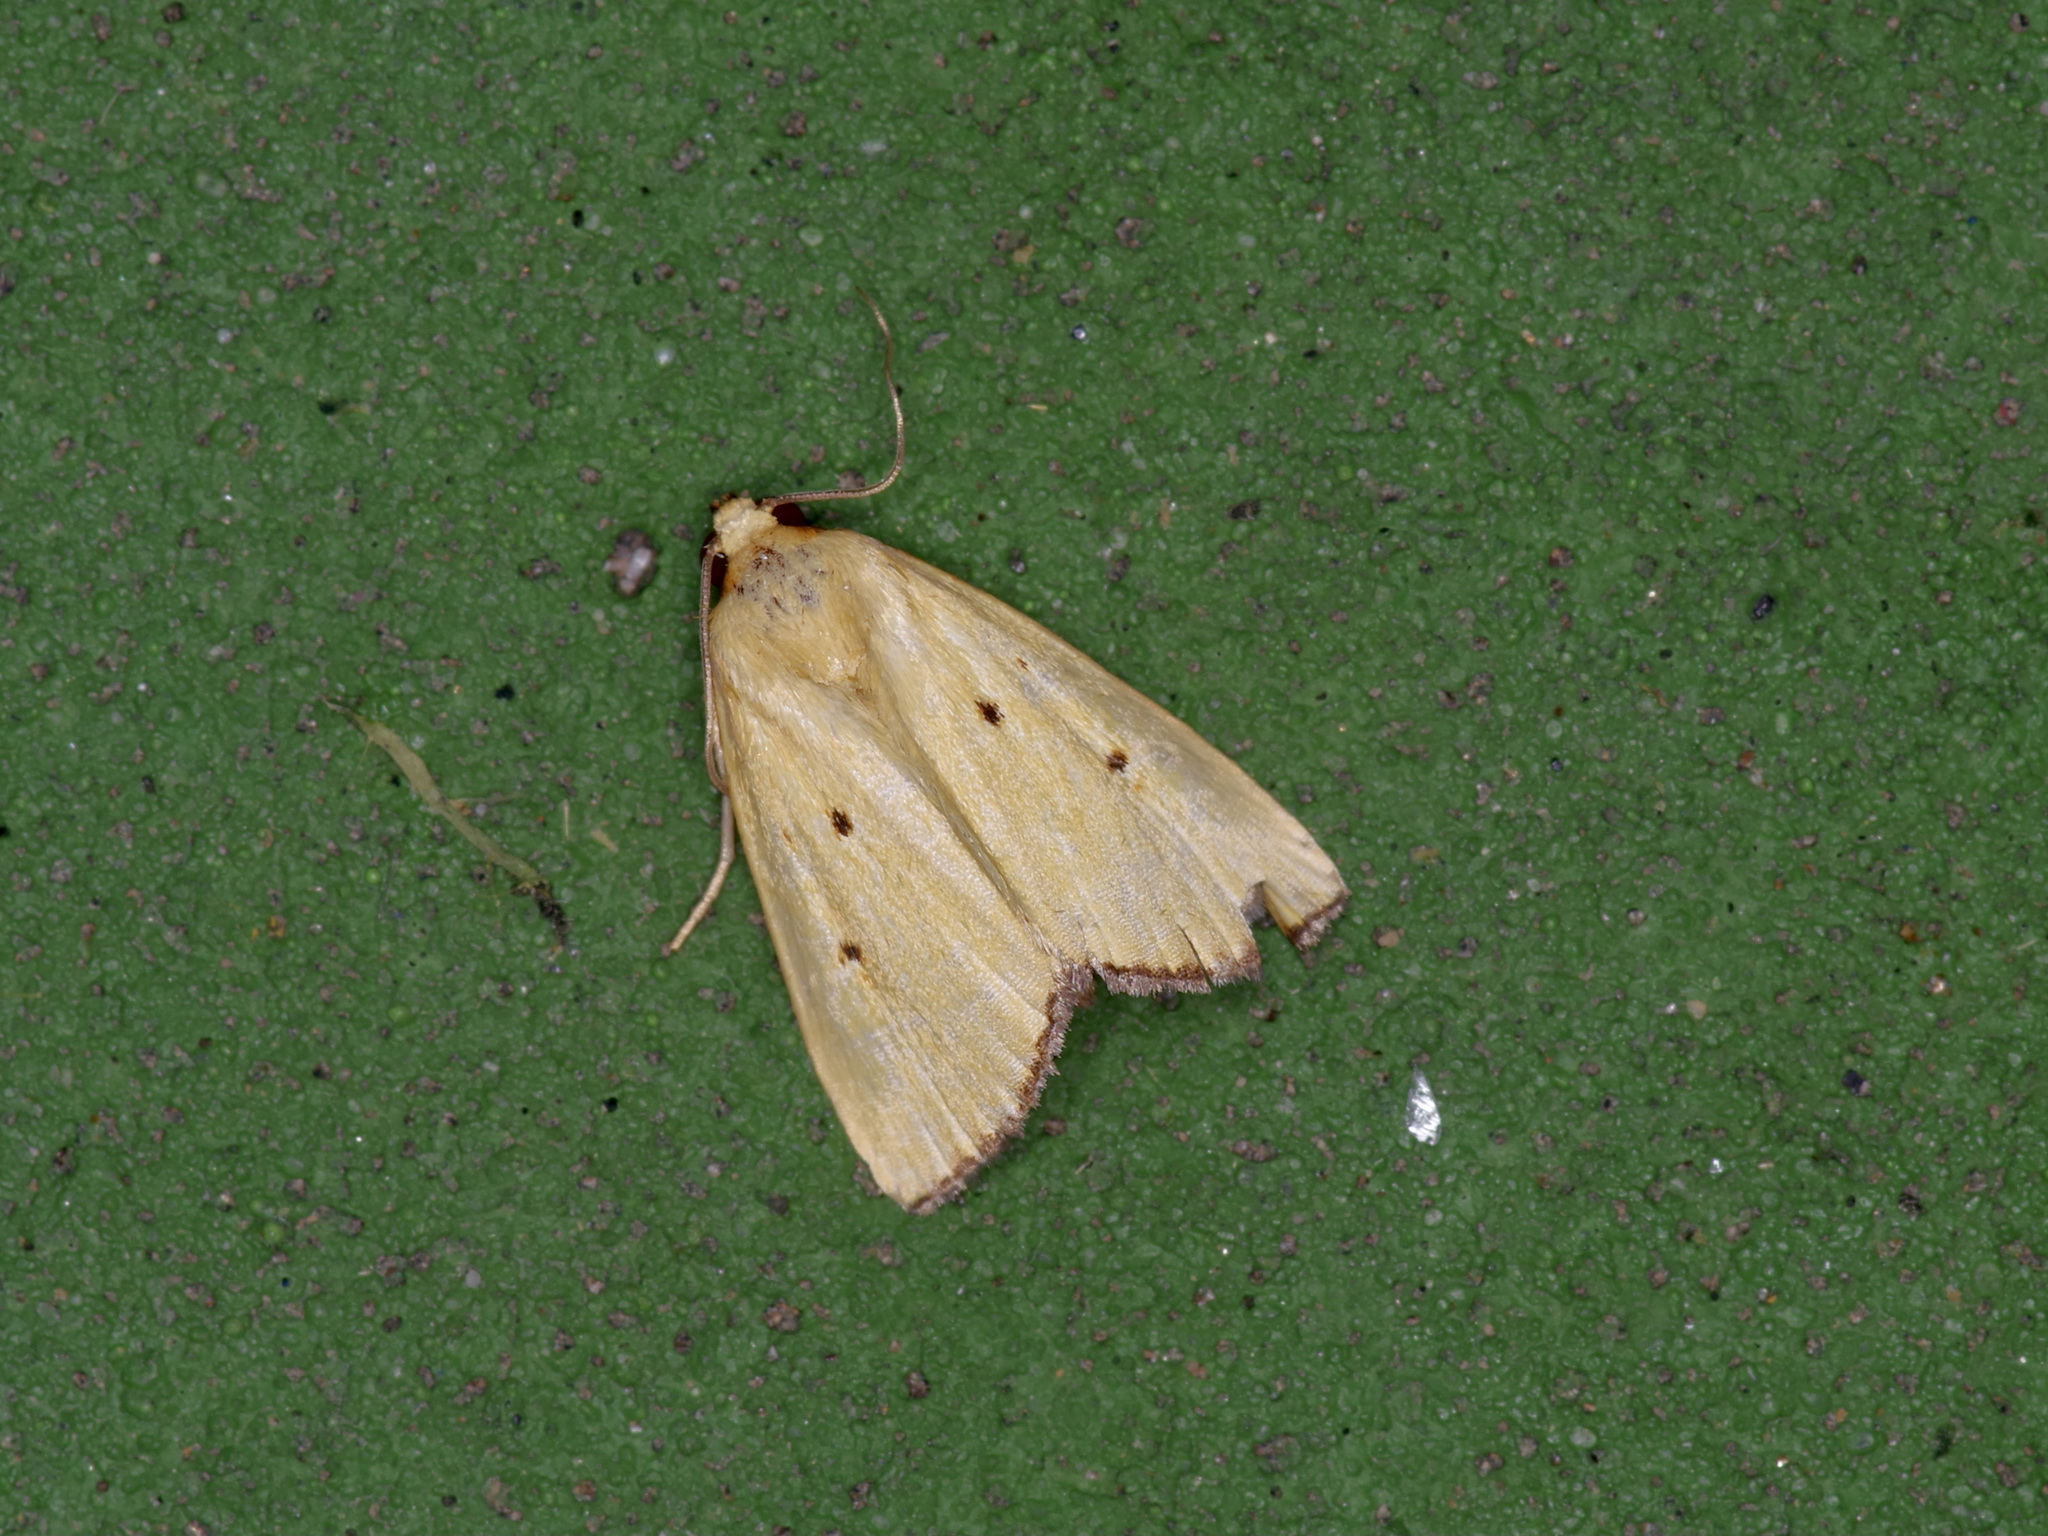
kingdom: Animalia
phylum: Arthropoda
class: Insecta
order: Lepidoptera
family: Noctuidae
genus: Marimatha
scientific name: Marimatha nigrofimbria
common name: Black-bordered lemon moth
